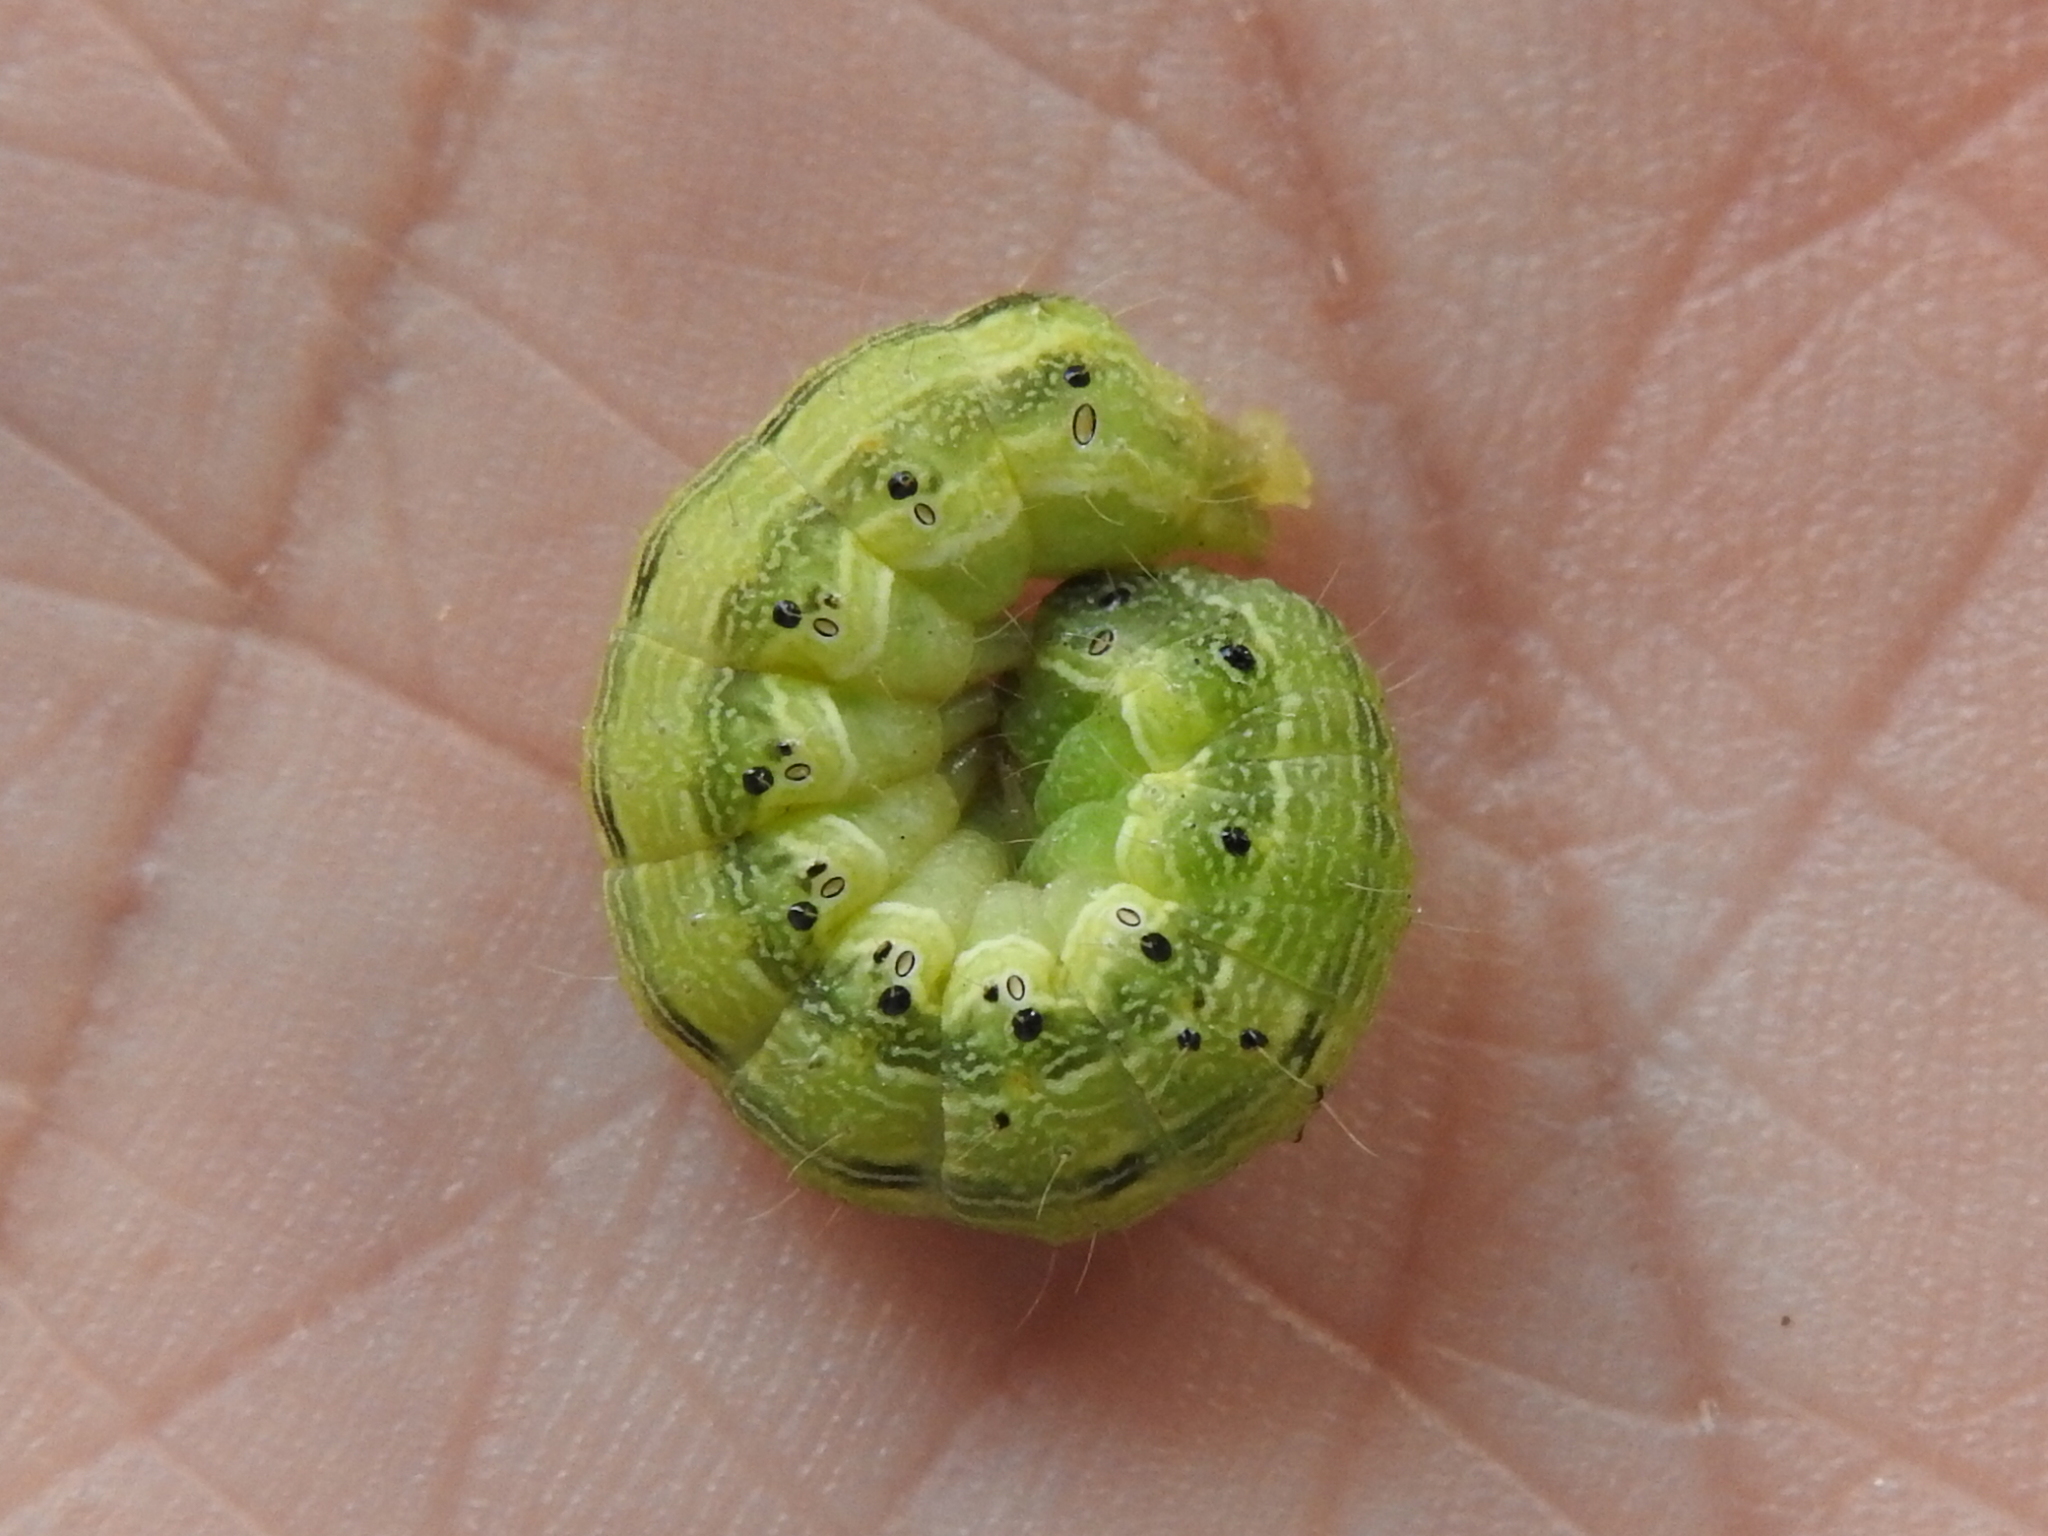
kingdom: Animalia
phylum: Arthropoda
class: Insecta
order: Lepidoptera
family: Noctuidae
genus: Helicoverpa
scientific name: Helicoverpa zea
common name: Bollworm
